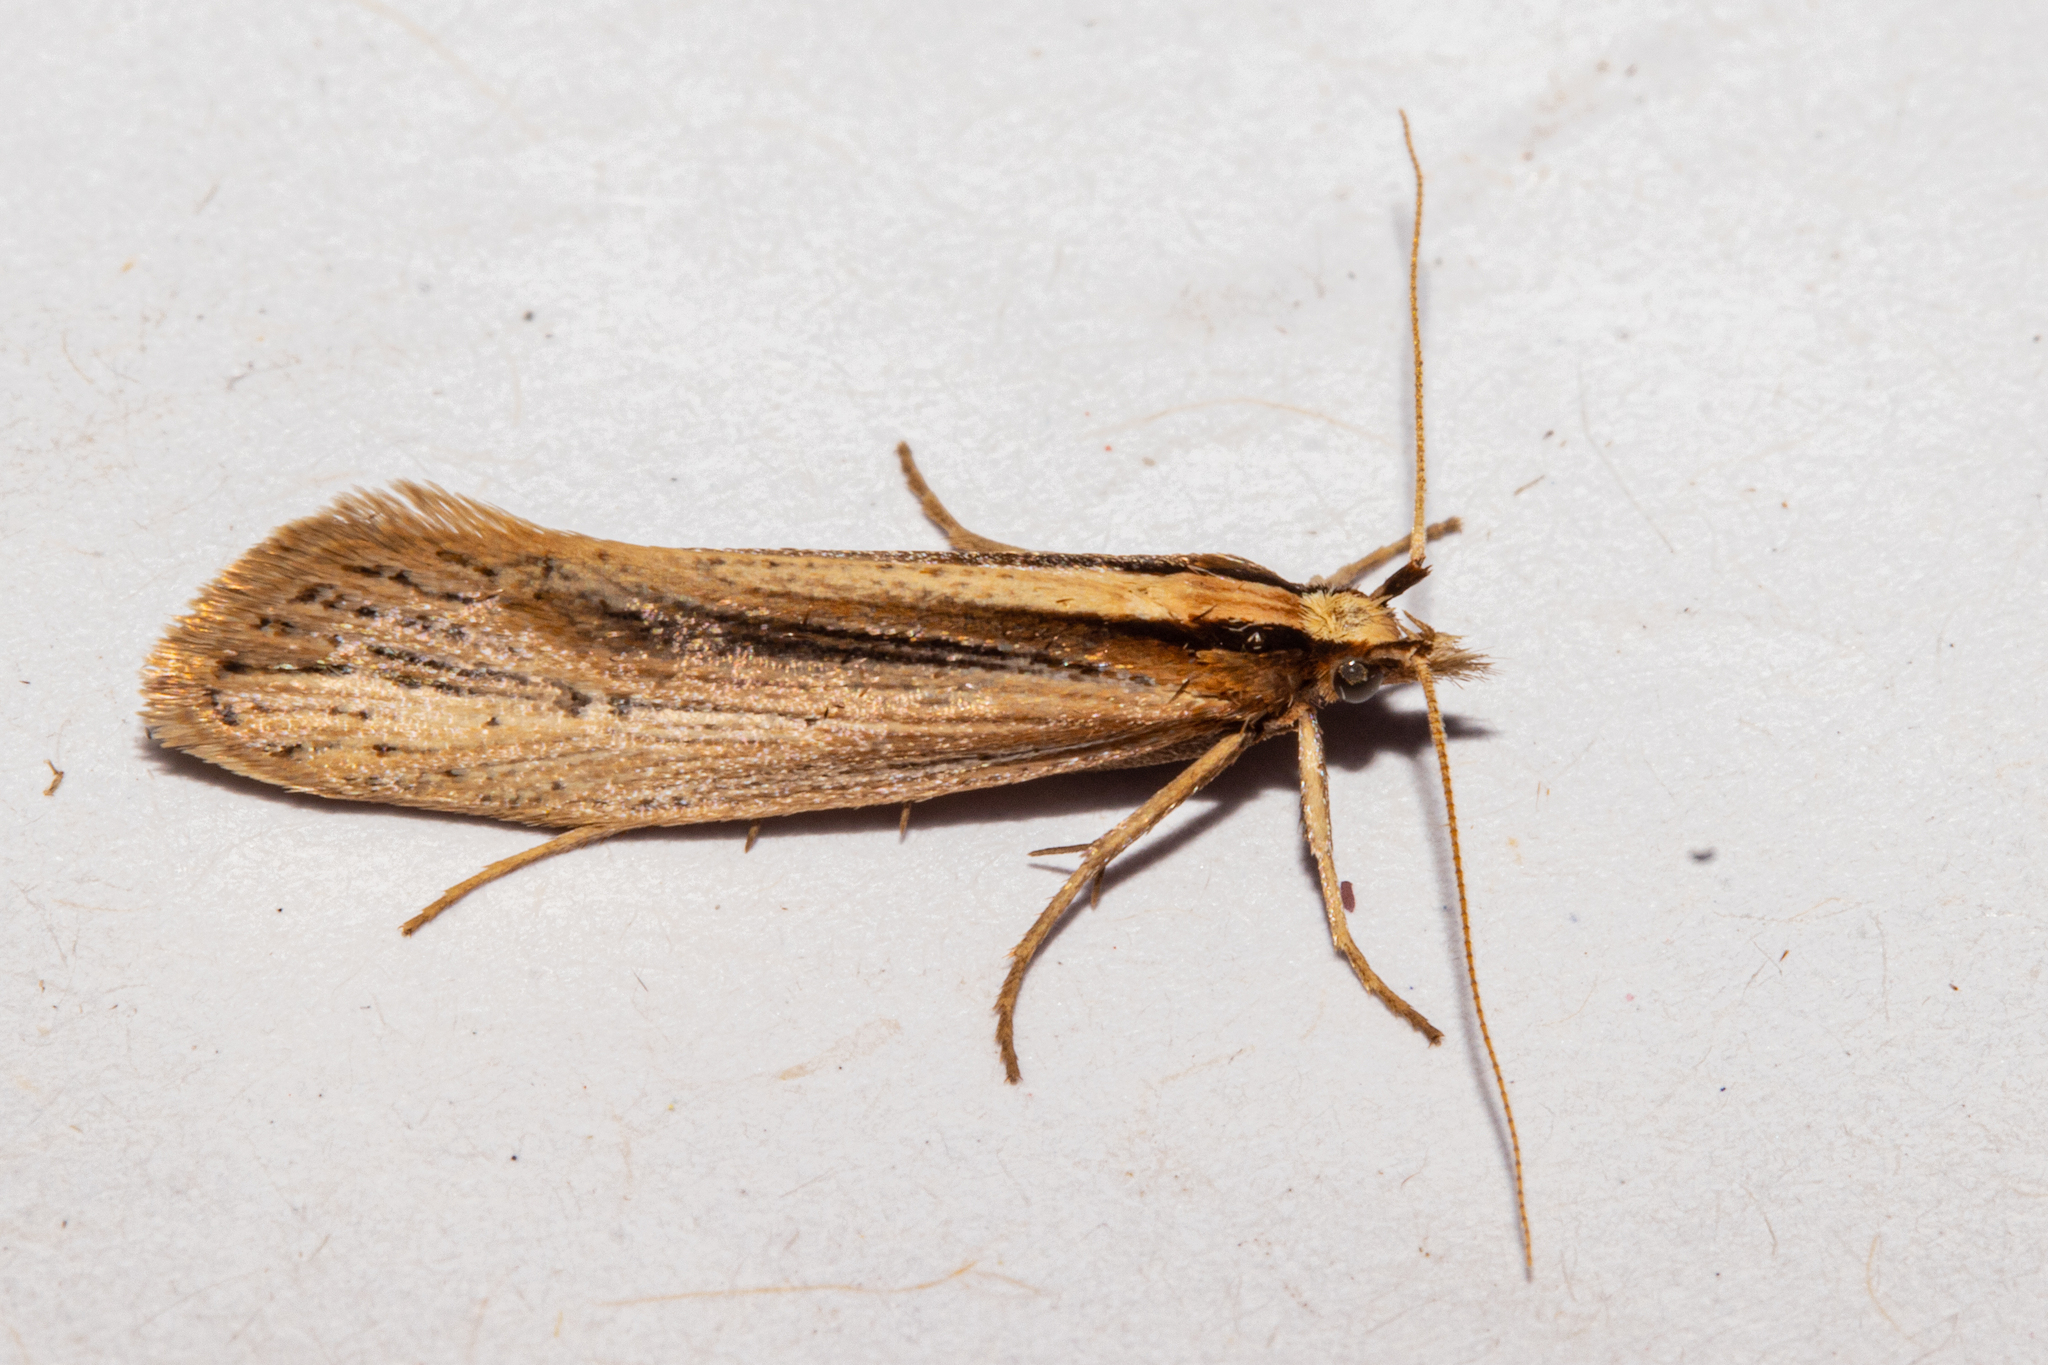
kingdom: Animalia
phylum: Arthropoda
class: Insecta
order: Lepidoptera
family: Plutellidae
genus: Proditrix
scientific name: Proditrix megalynta
